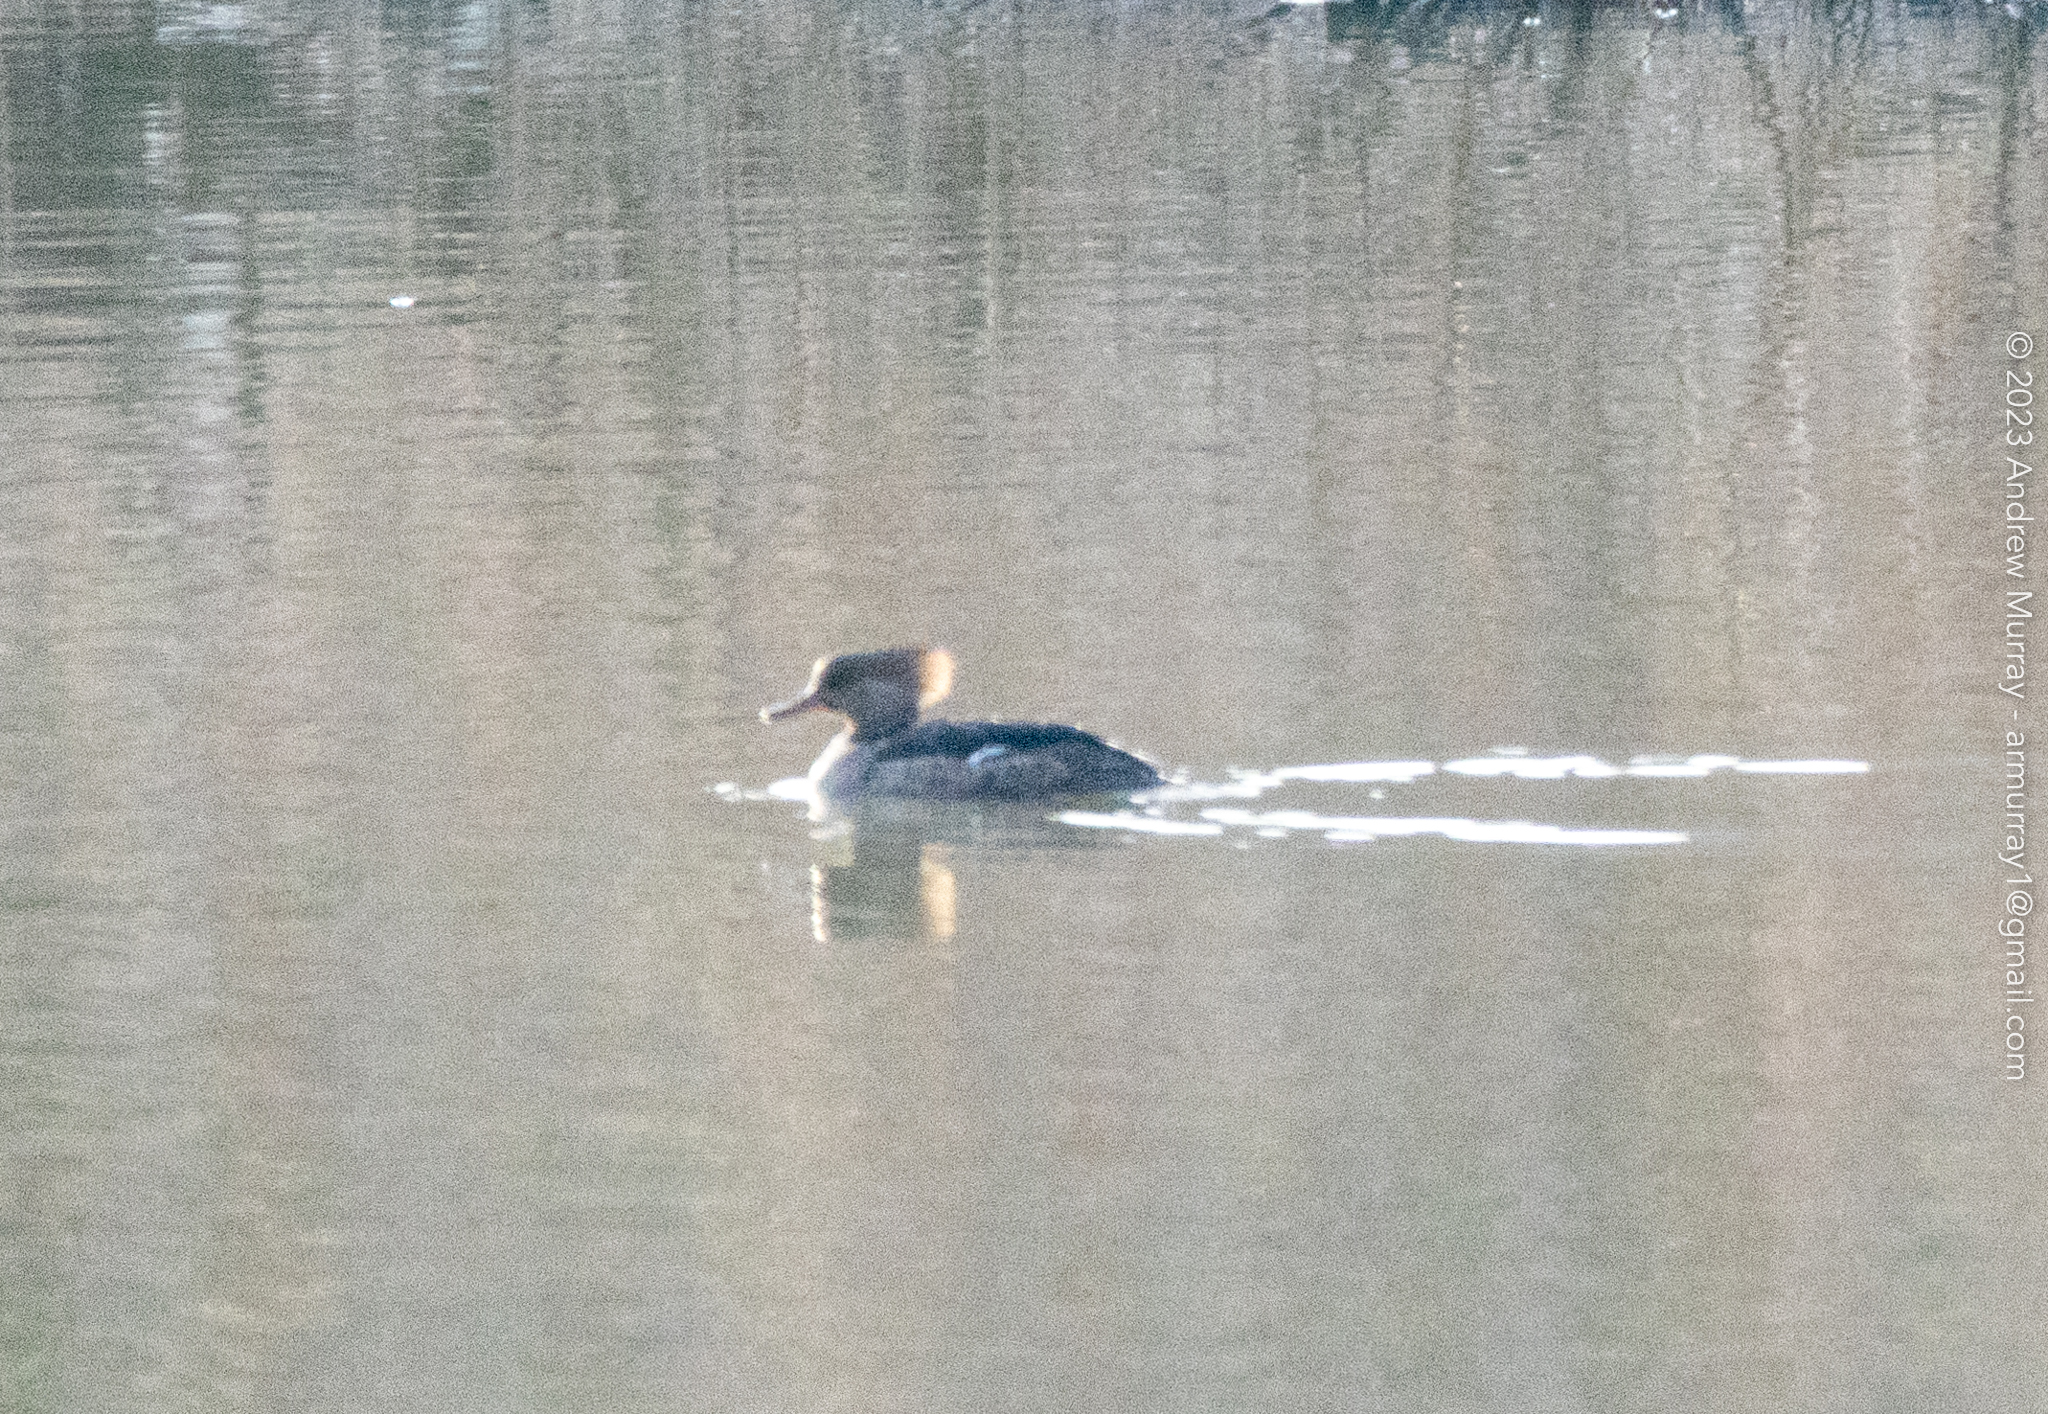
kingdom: Animalia
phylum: Chordata
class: Aves
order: Anseriformes
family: Anatidae
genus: Lophodytes
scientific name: Lophodytes cucullatus
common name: Hooded merganser
